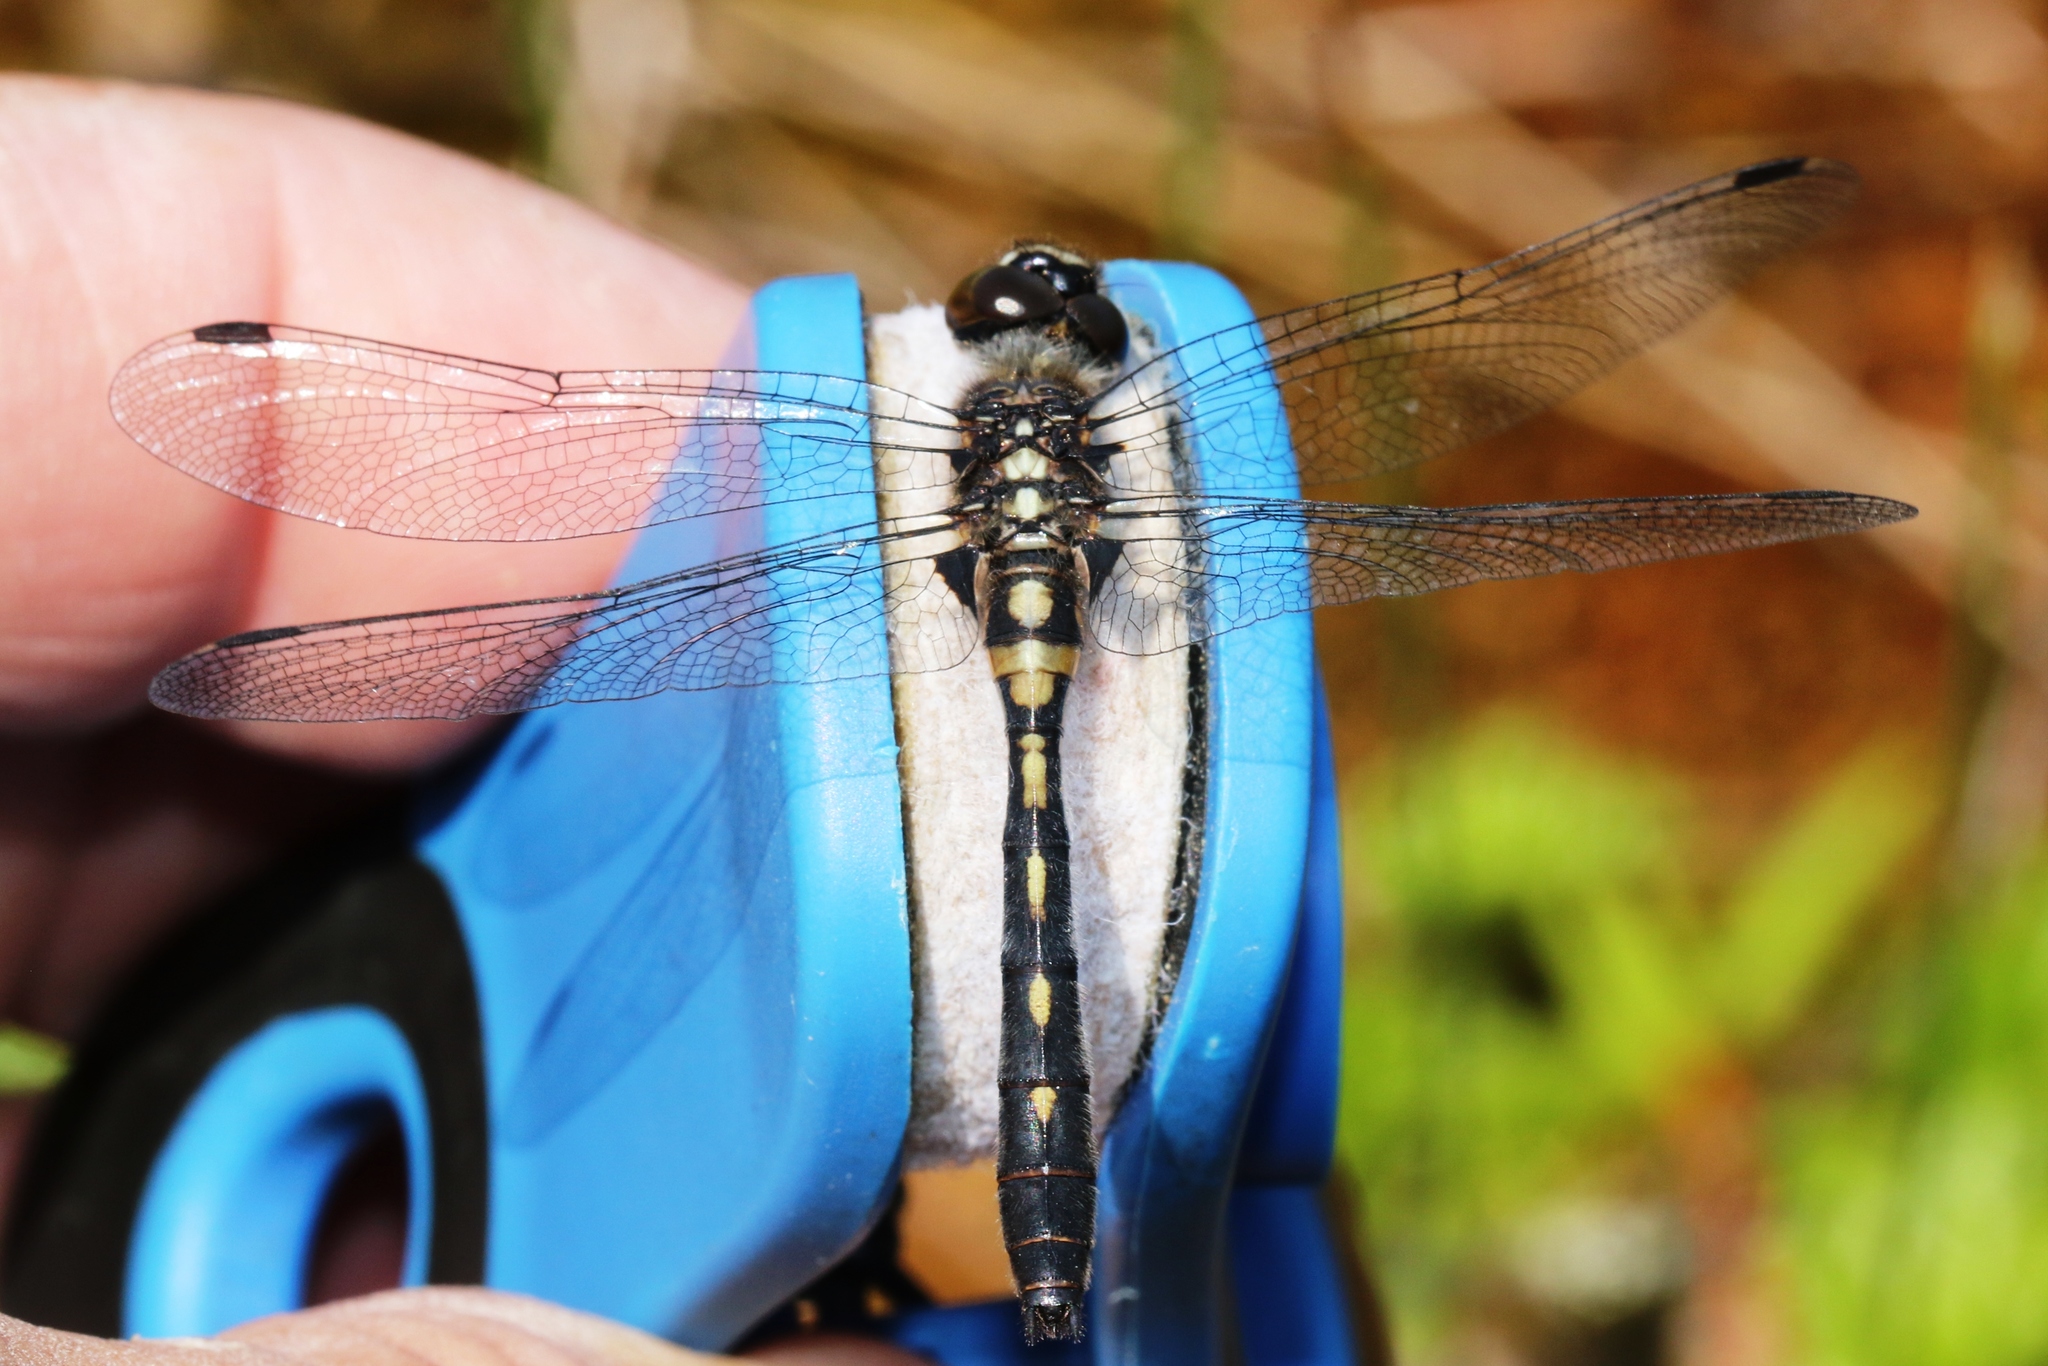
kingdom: Animalia
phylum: Arthropoda
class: Insecta
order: Odonata
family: Libellulidae
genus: Leucorrhinia
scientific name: Leucorrhinia glacialis
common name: Crimson-ringed whiteface
